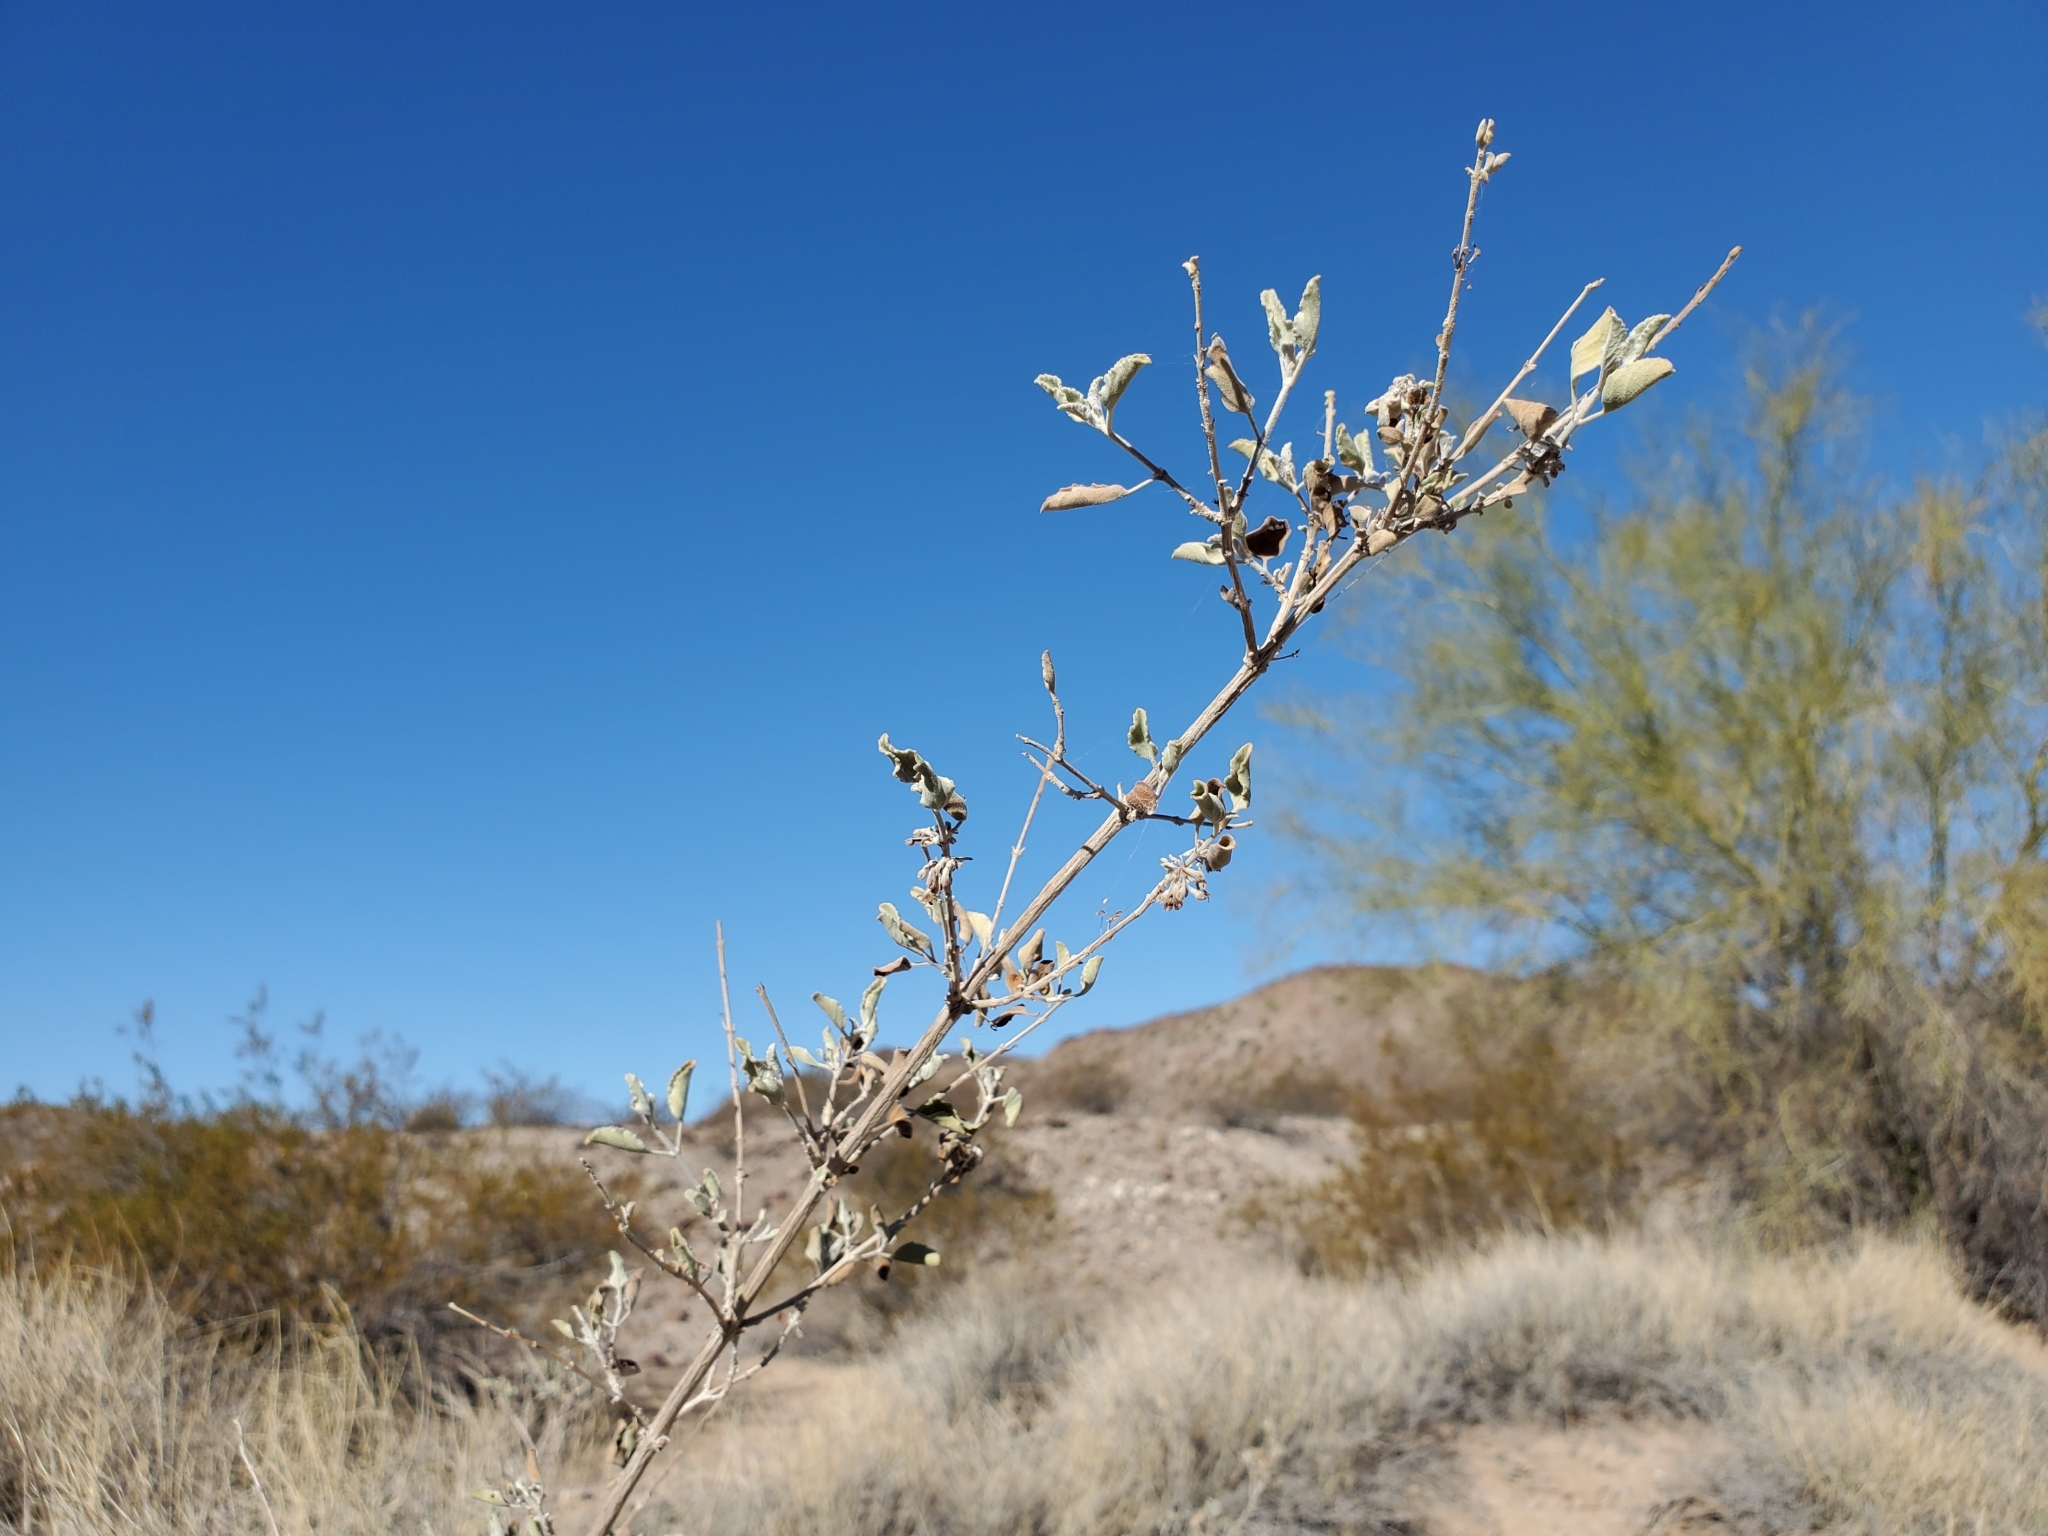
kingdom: Plantae
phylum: Tracheophyta
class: Magnoliopsida
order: Lamiales
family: Lamiaceae
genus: Condea
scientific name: Condea emoryi
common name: Chia
